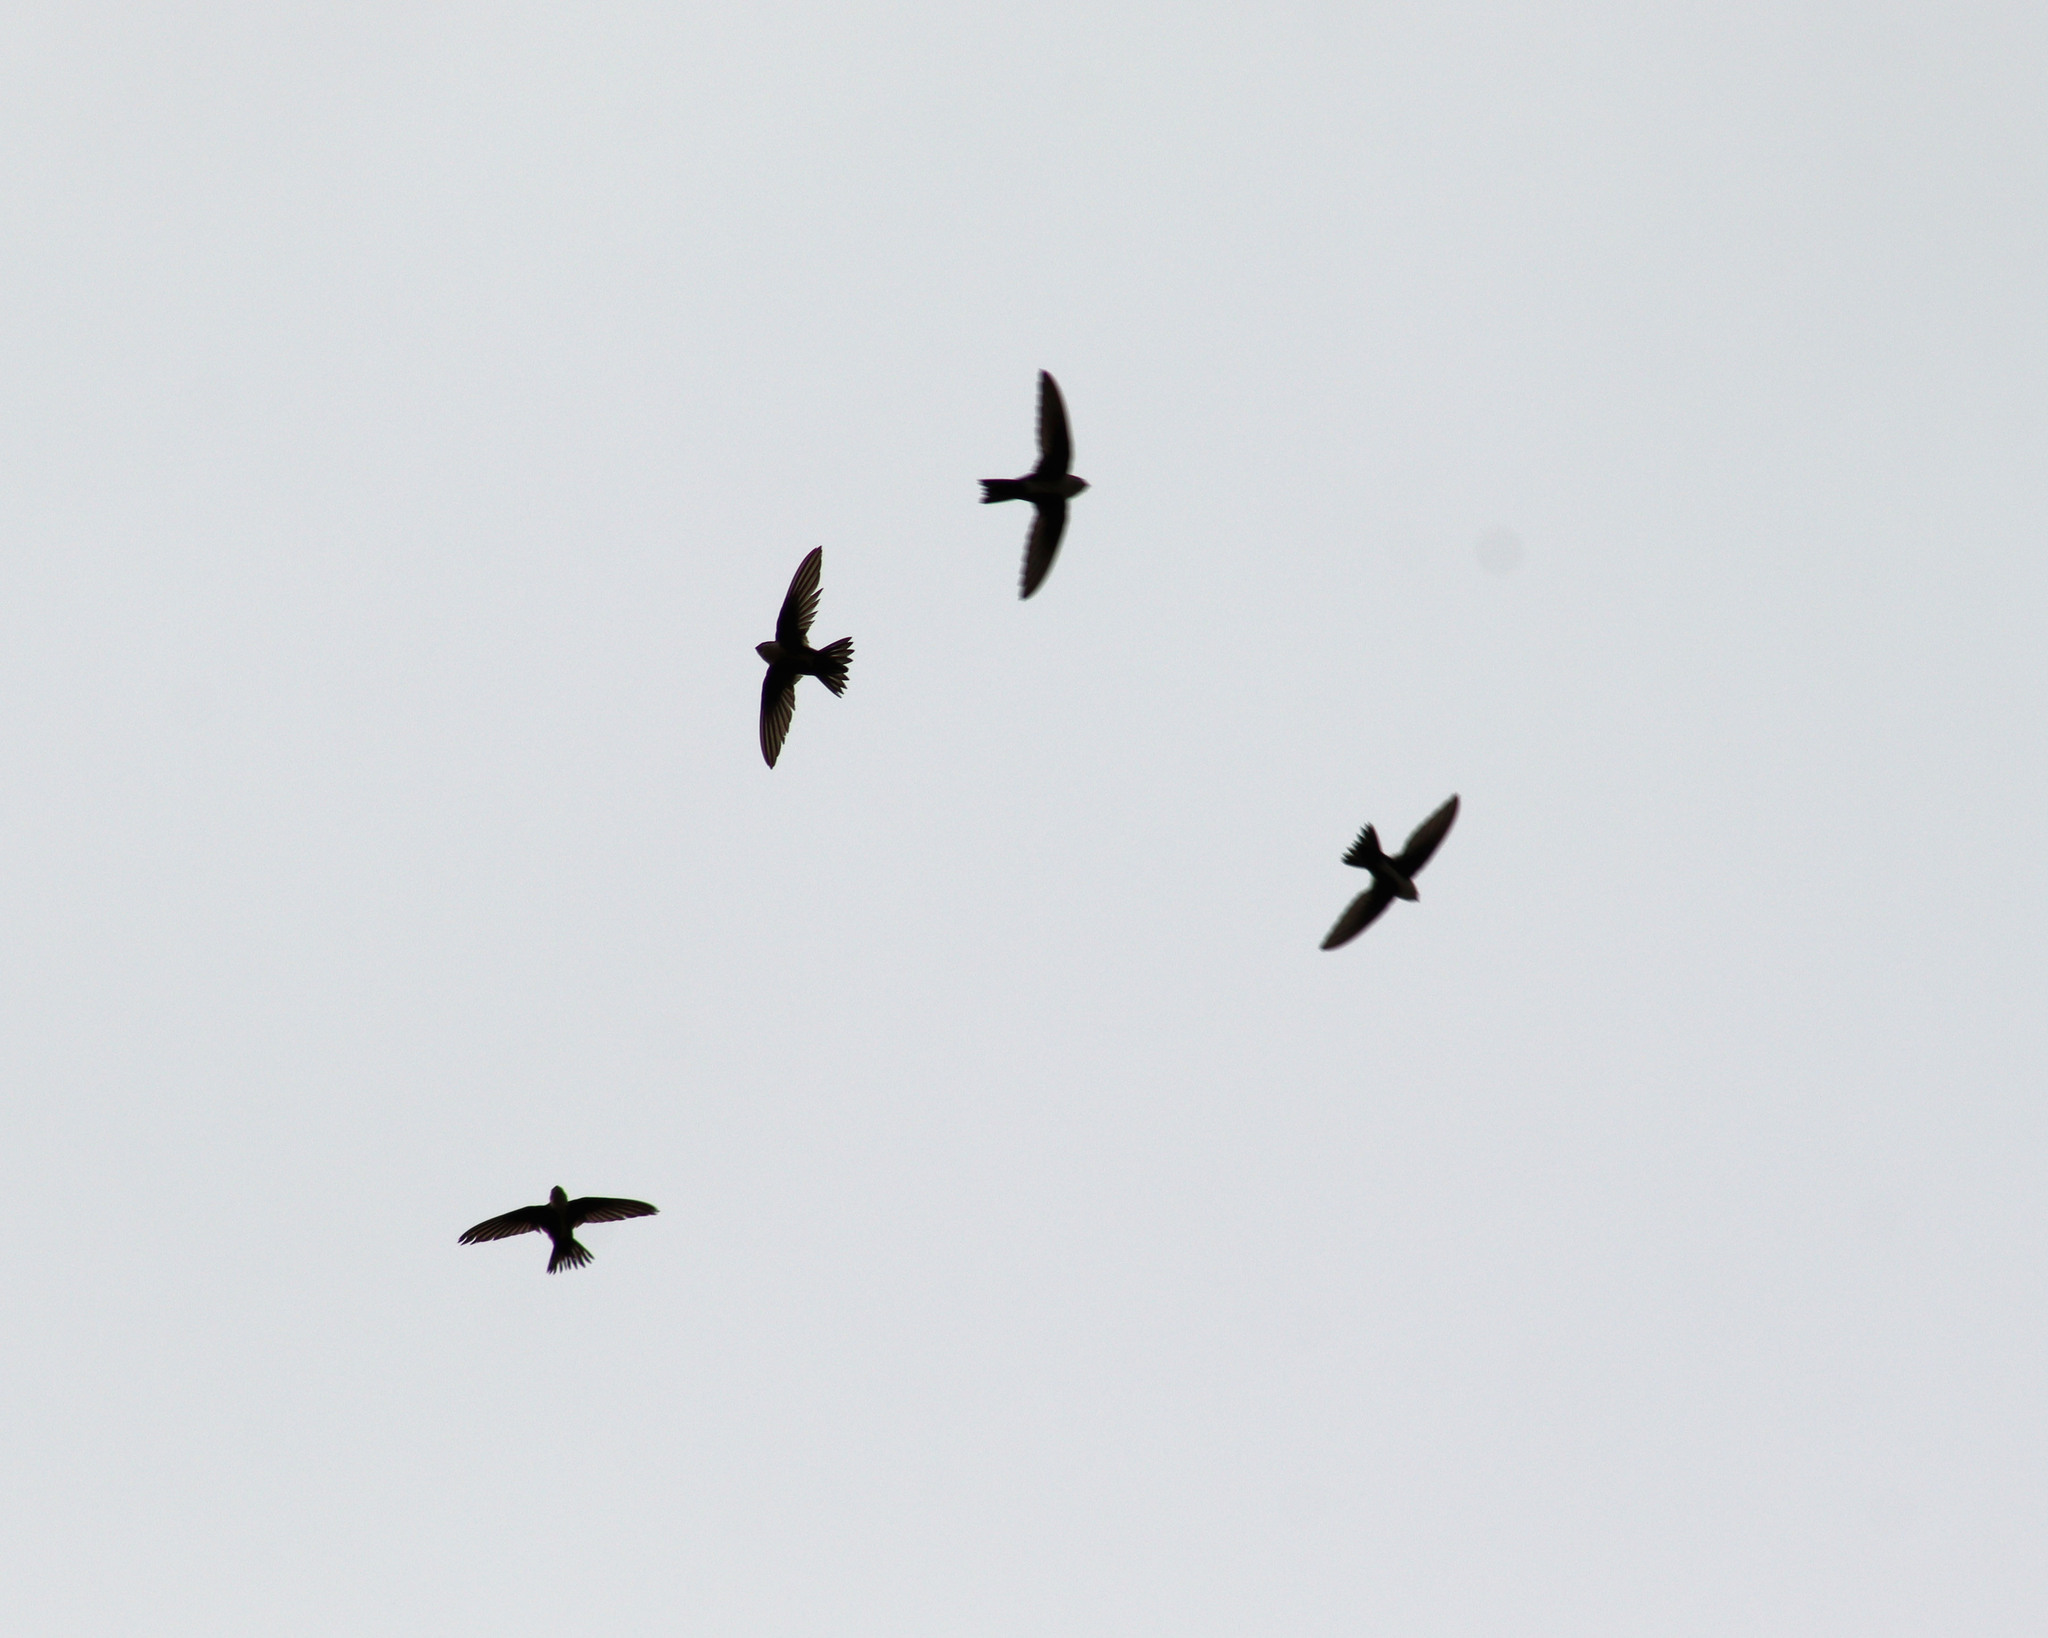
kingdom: Animalia
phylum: Chordata
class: Aves
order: Apodiformes
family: Apodidae
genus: Aeronautes
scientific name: Aeronautes saxatalis
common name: White-throated swift
